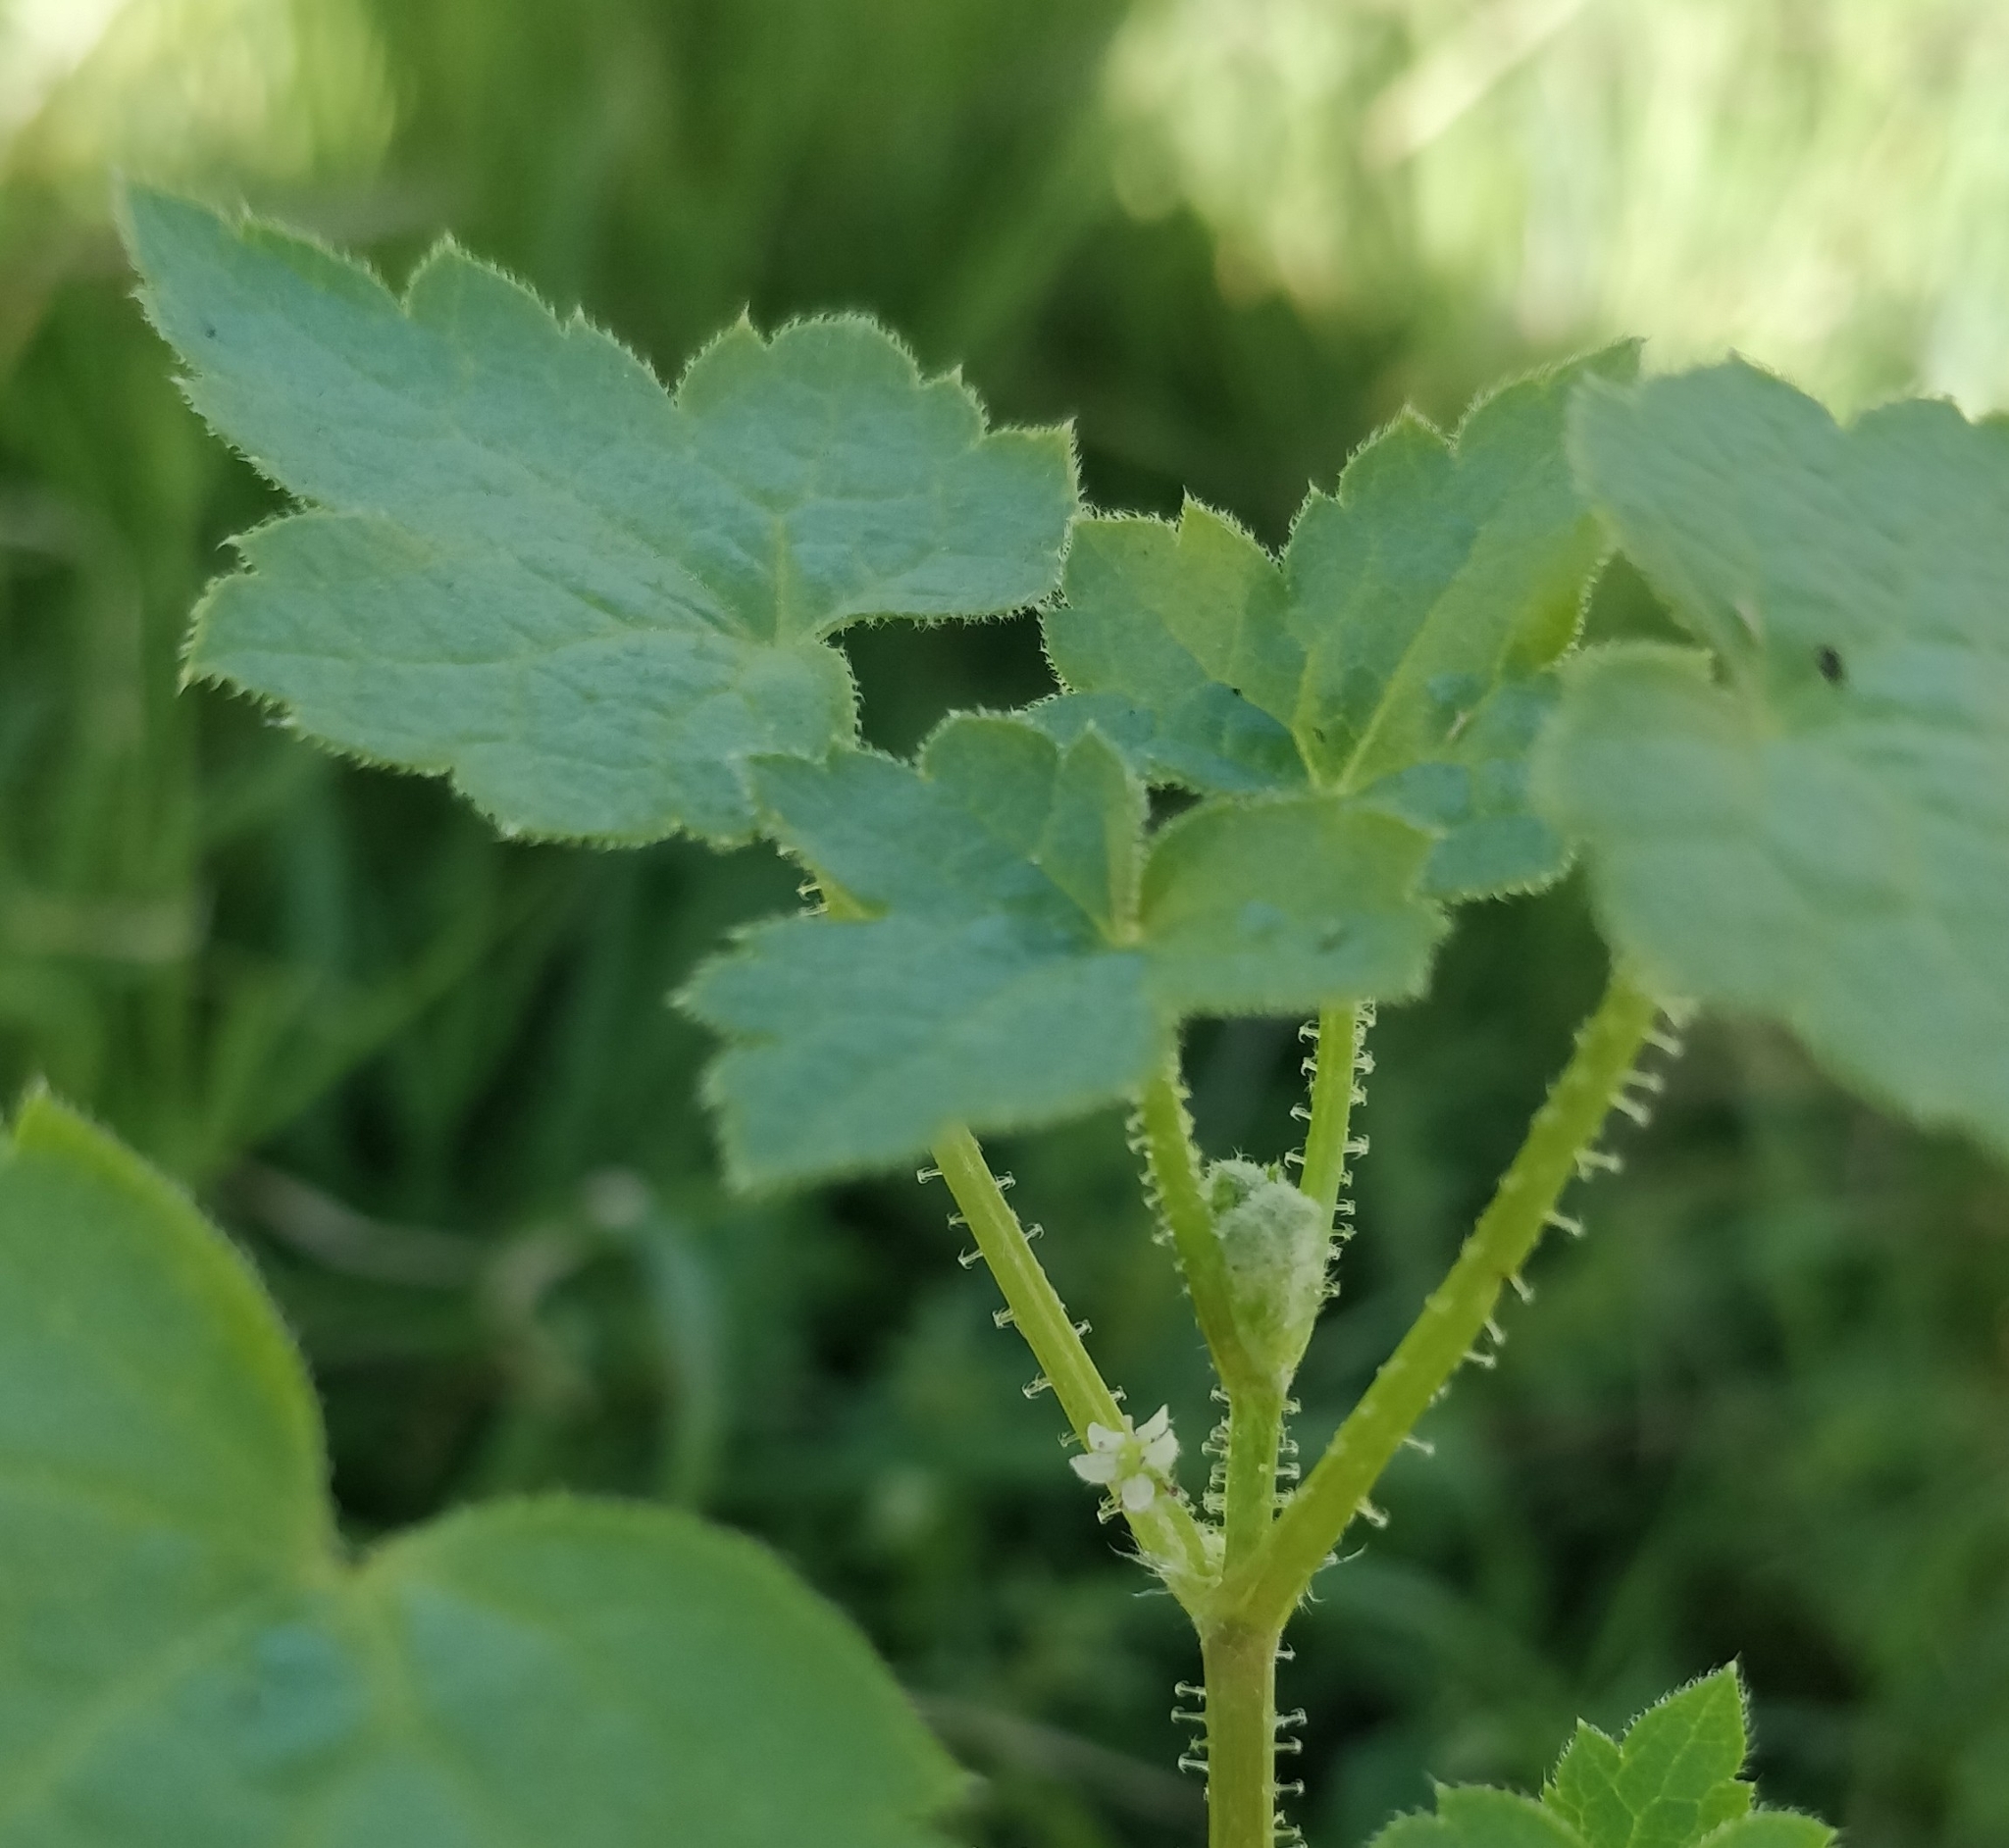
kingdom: Plantae
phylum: Tracheophyta
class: Magnoliopsida
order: Apiales
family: Apiaceae
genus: Drusa
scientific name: Drusa glandulosa
